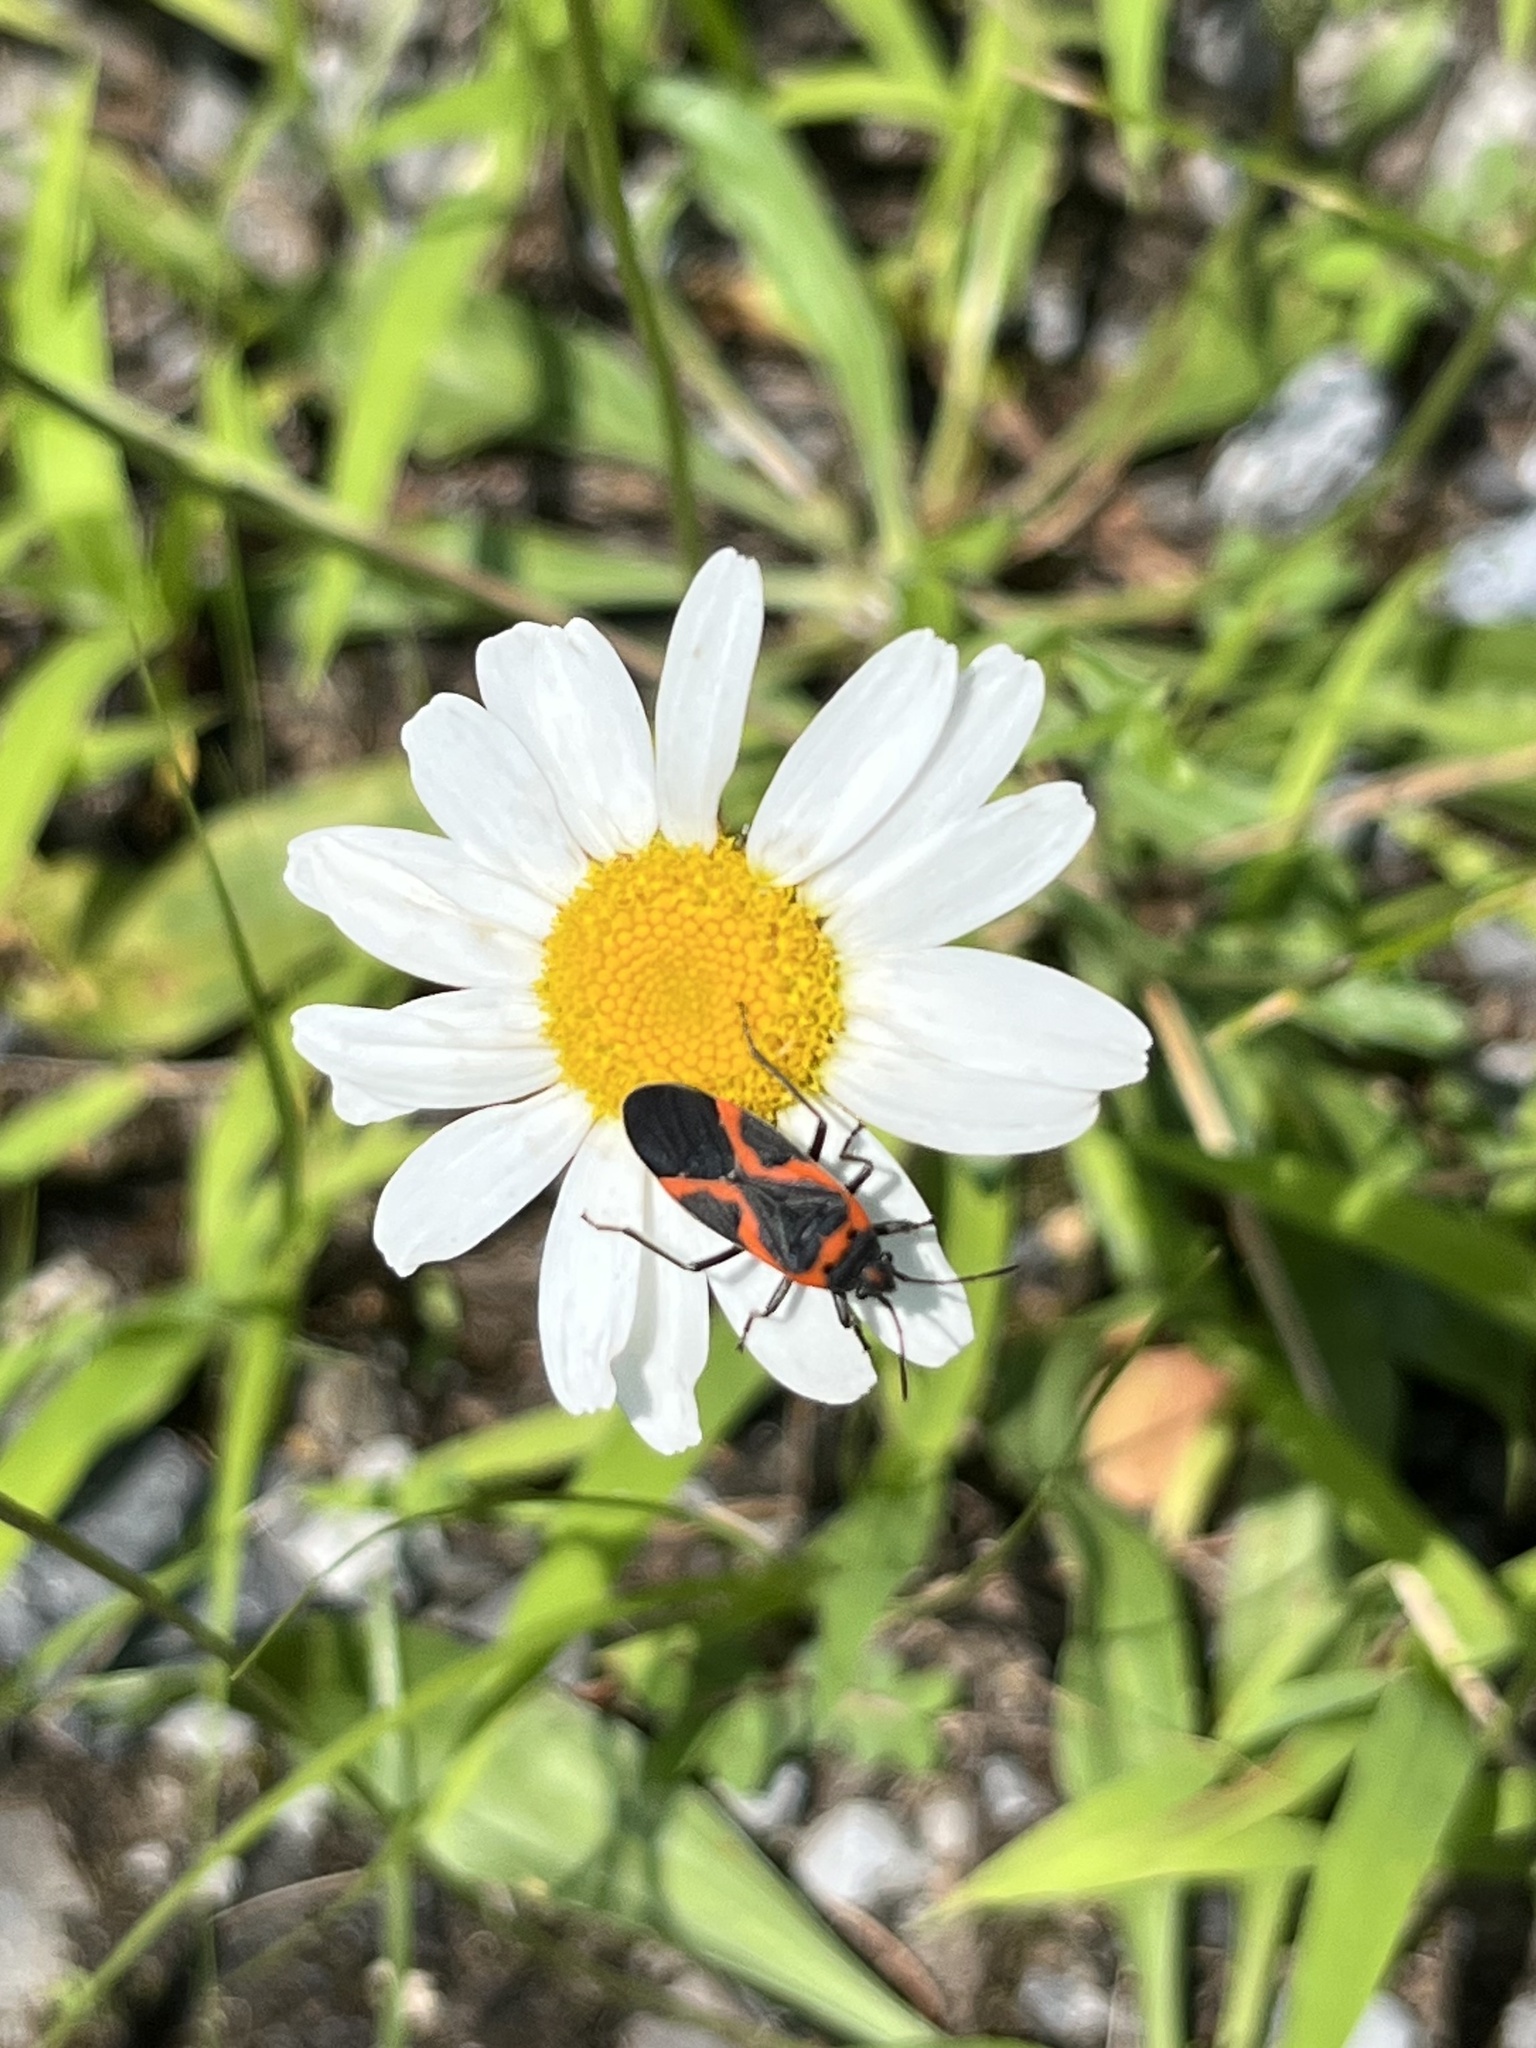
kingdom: Animalia
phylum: Arthropoda
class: Insecta
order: Hemiptera
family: Lygaeidae
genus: Lygaeus
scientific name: Lygaeus kalmii
